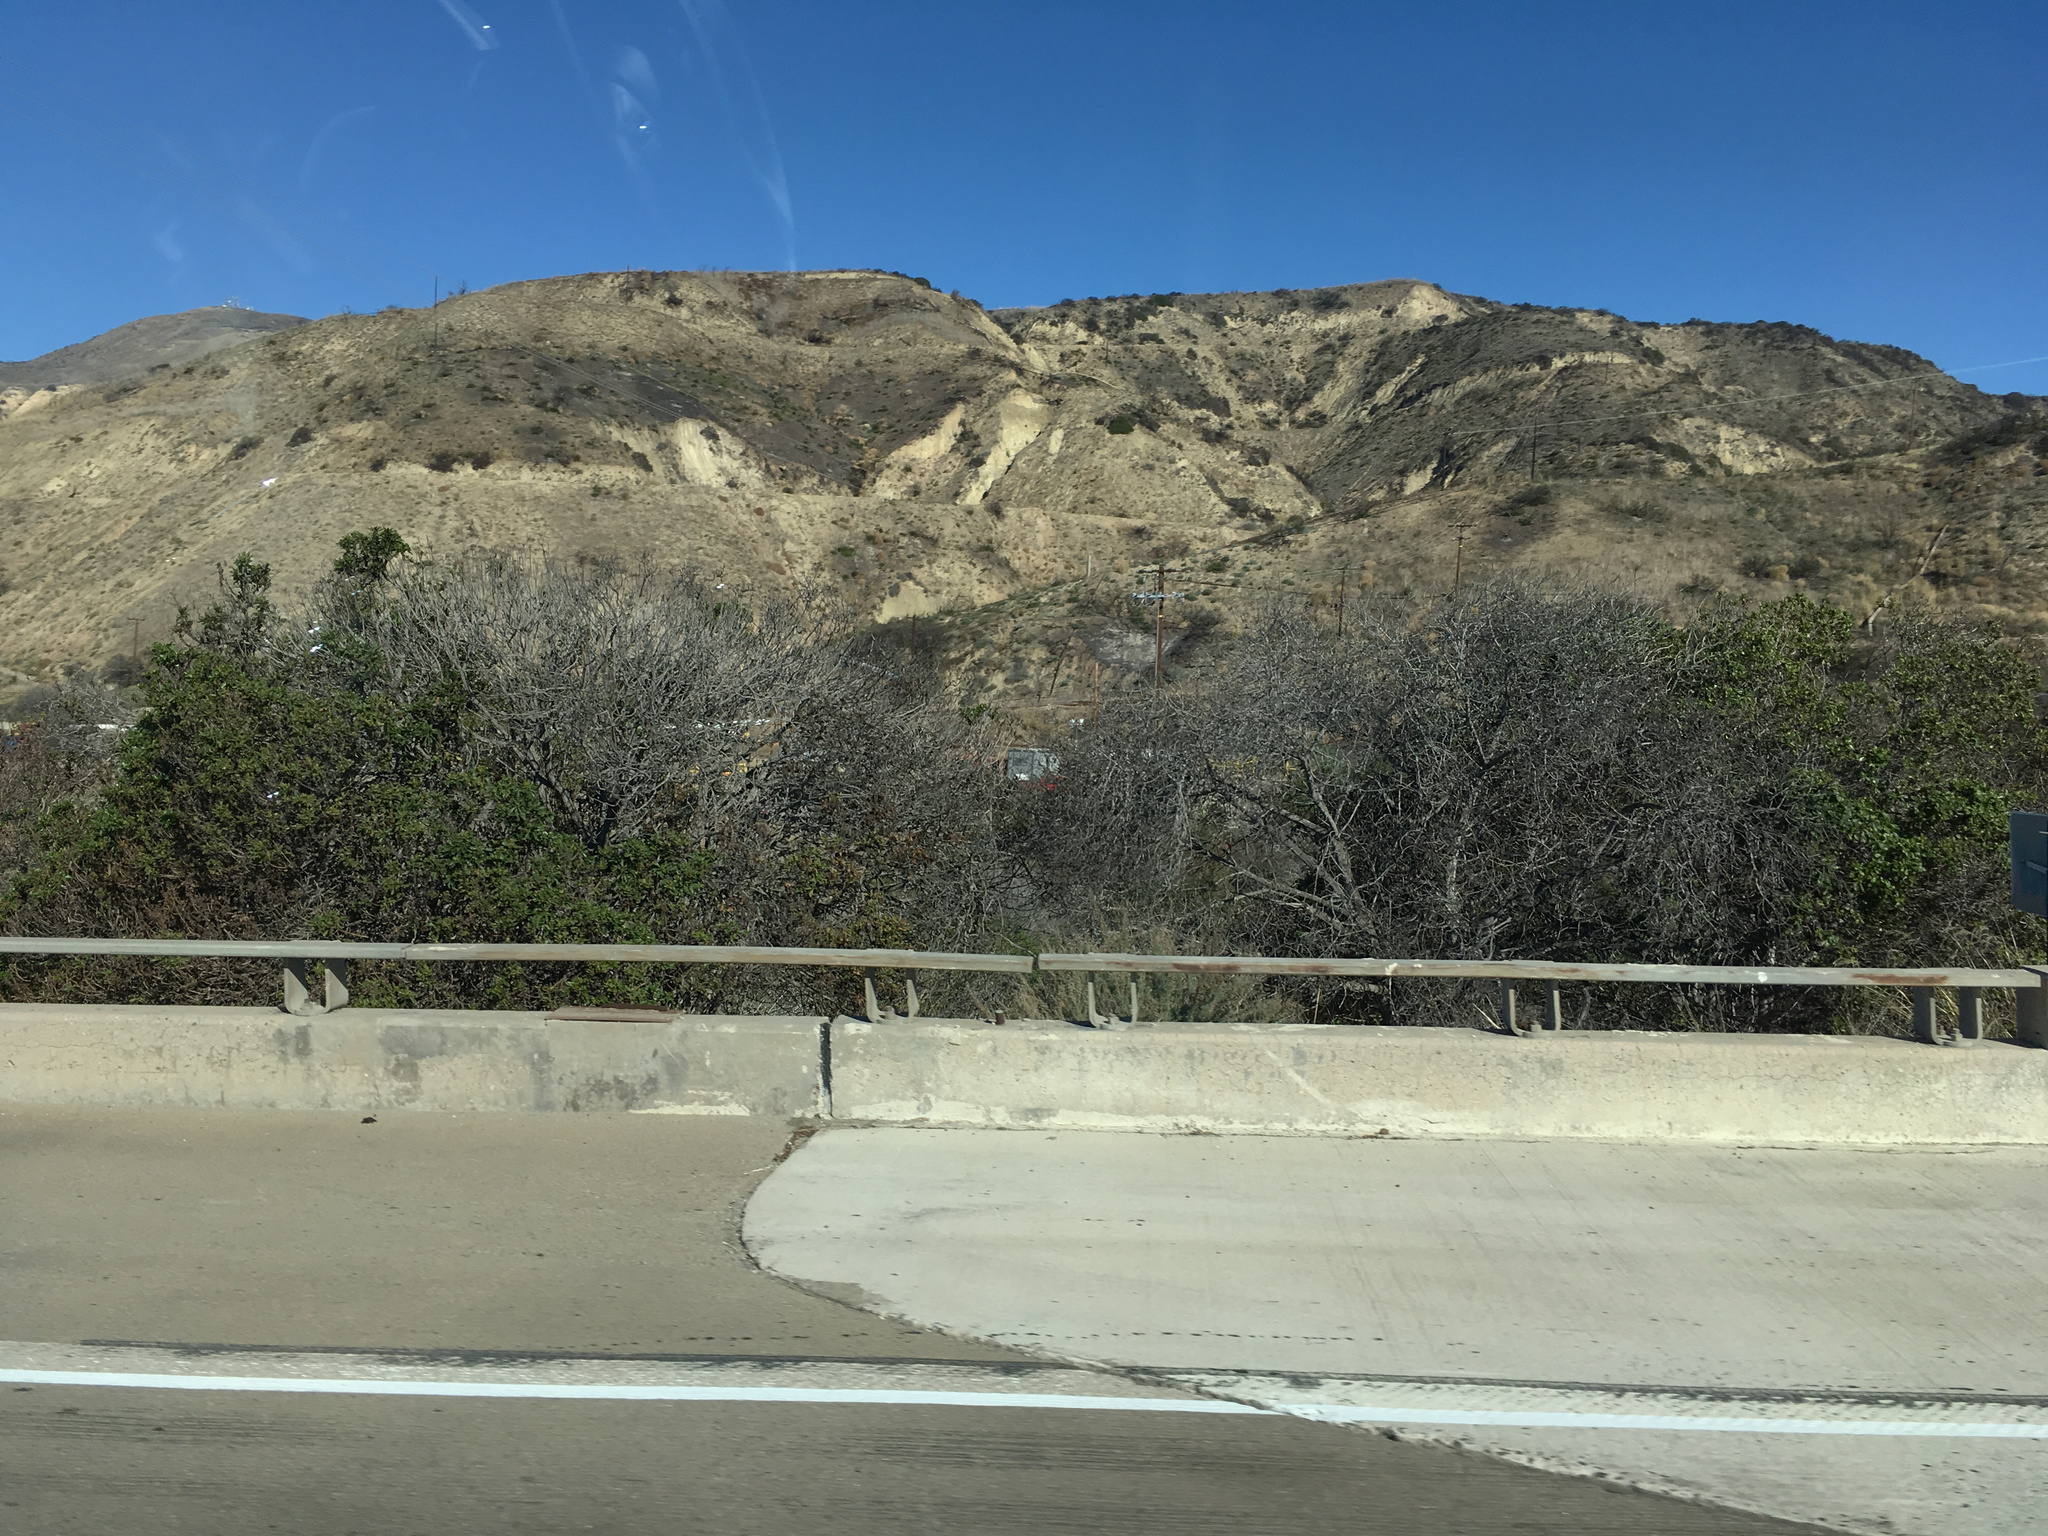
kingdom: Plantae
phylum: Tracheophyta
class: Magnoliopsida
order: Lamiales
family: Scrophulariaceae
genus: Myoporum
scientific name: Myoporum laetum
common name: Ngaio tree
